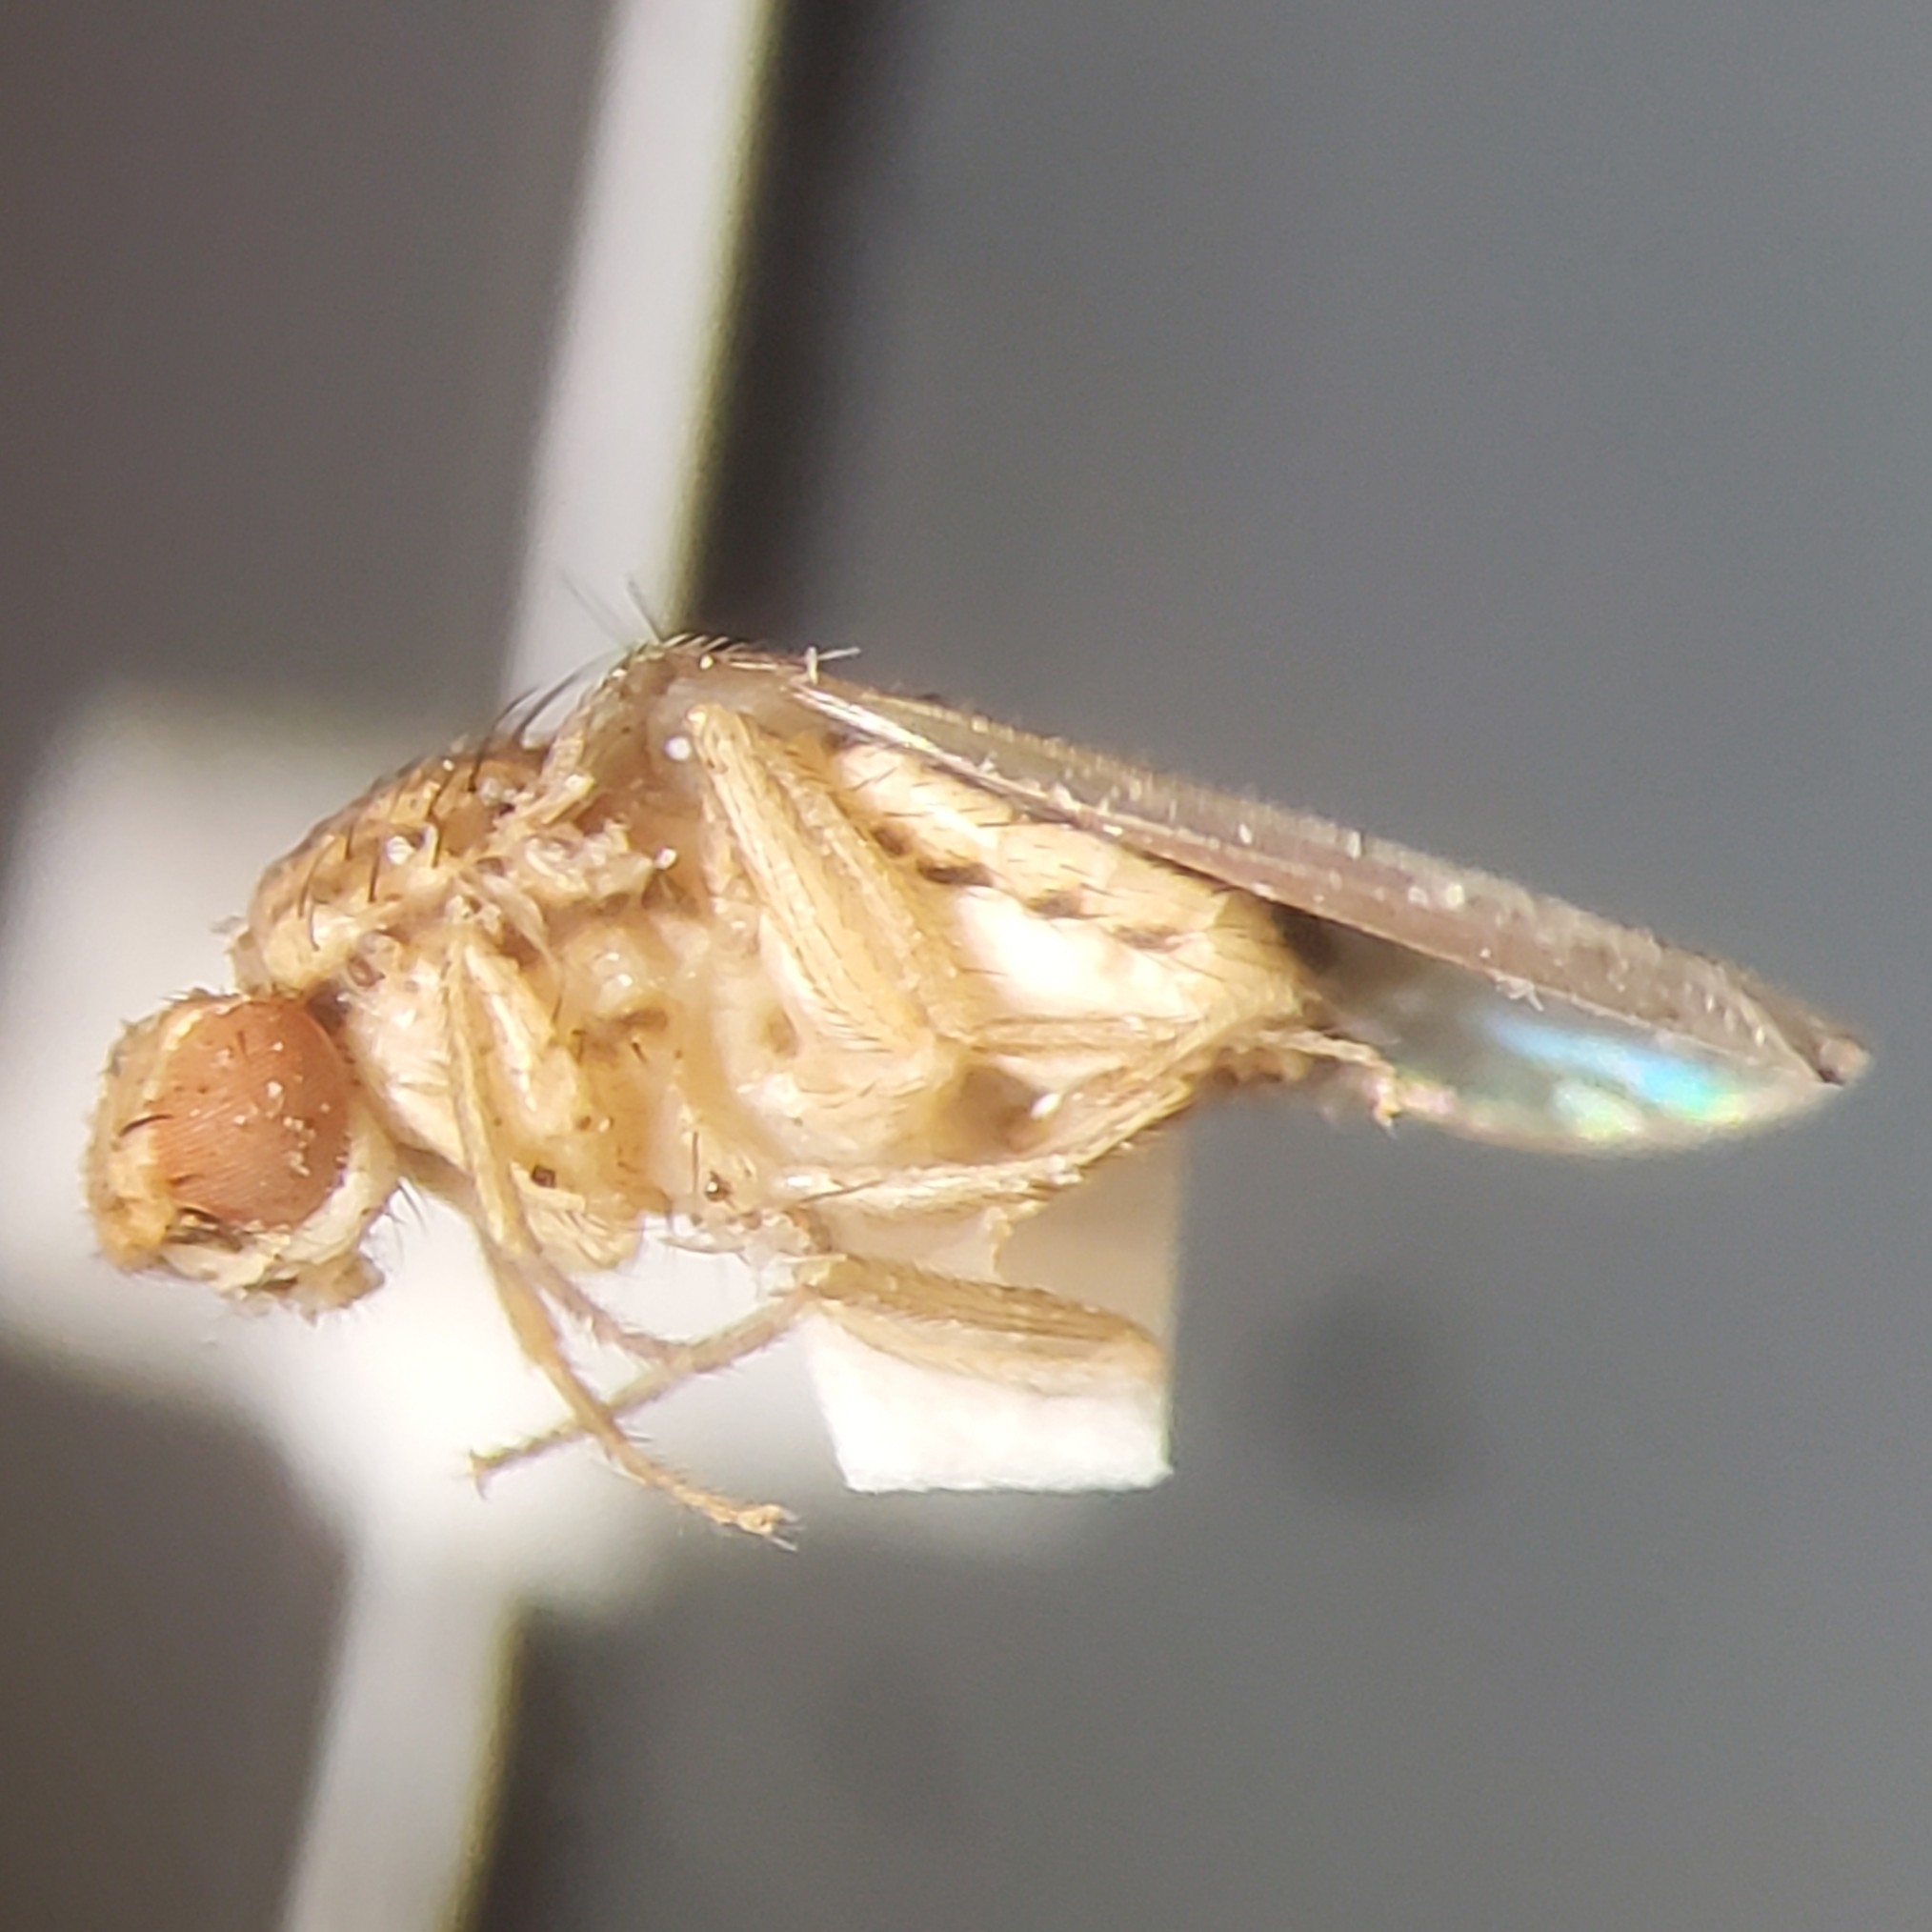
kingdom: Animalia
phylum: Arthropoda
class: Insecta
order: Diptera
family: Drosophilidae
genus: Drosophila
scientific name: Drosophila busckii
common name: Pomace fly
